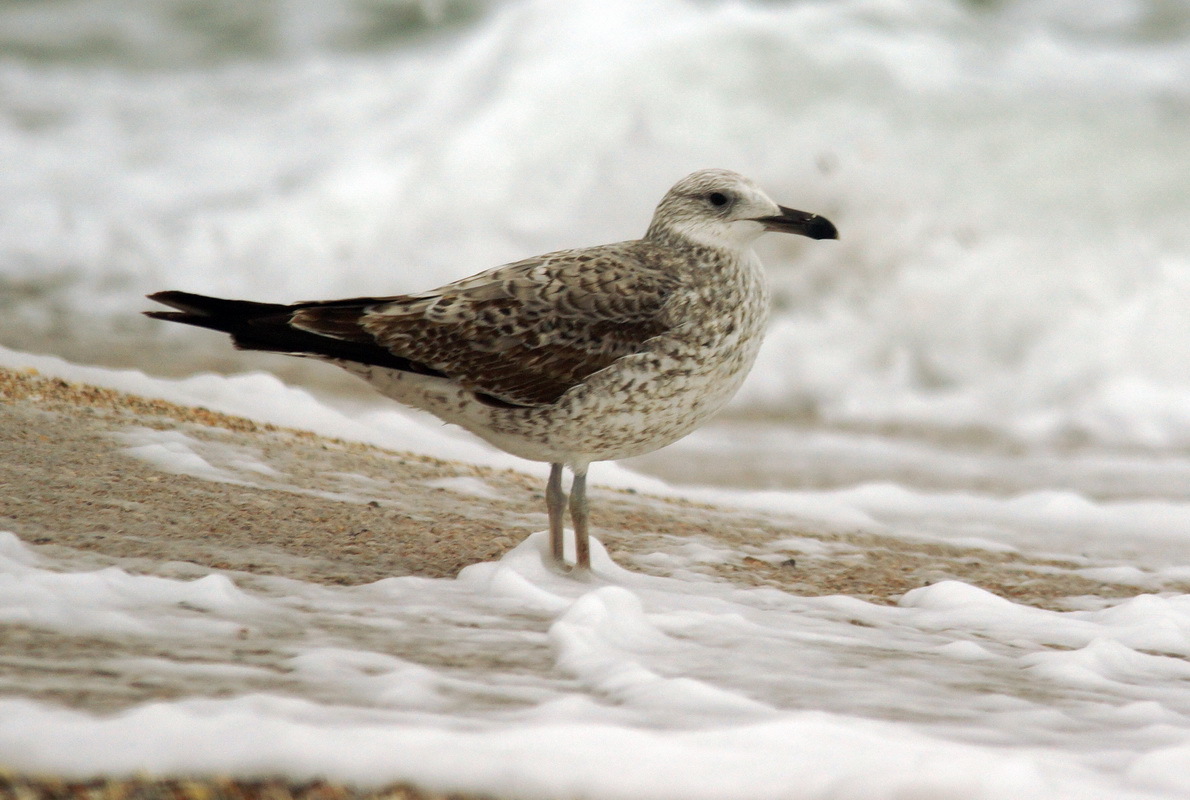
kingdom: Animalia
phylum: Chordata
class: Aves
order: Charadriiformes
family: Laridae
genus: Larus
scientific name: Larus michahellis
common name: Yellow-legged gull
